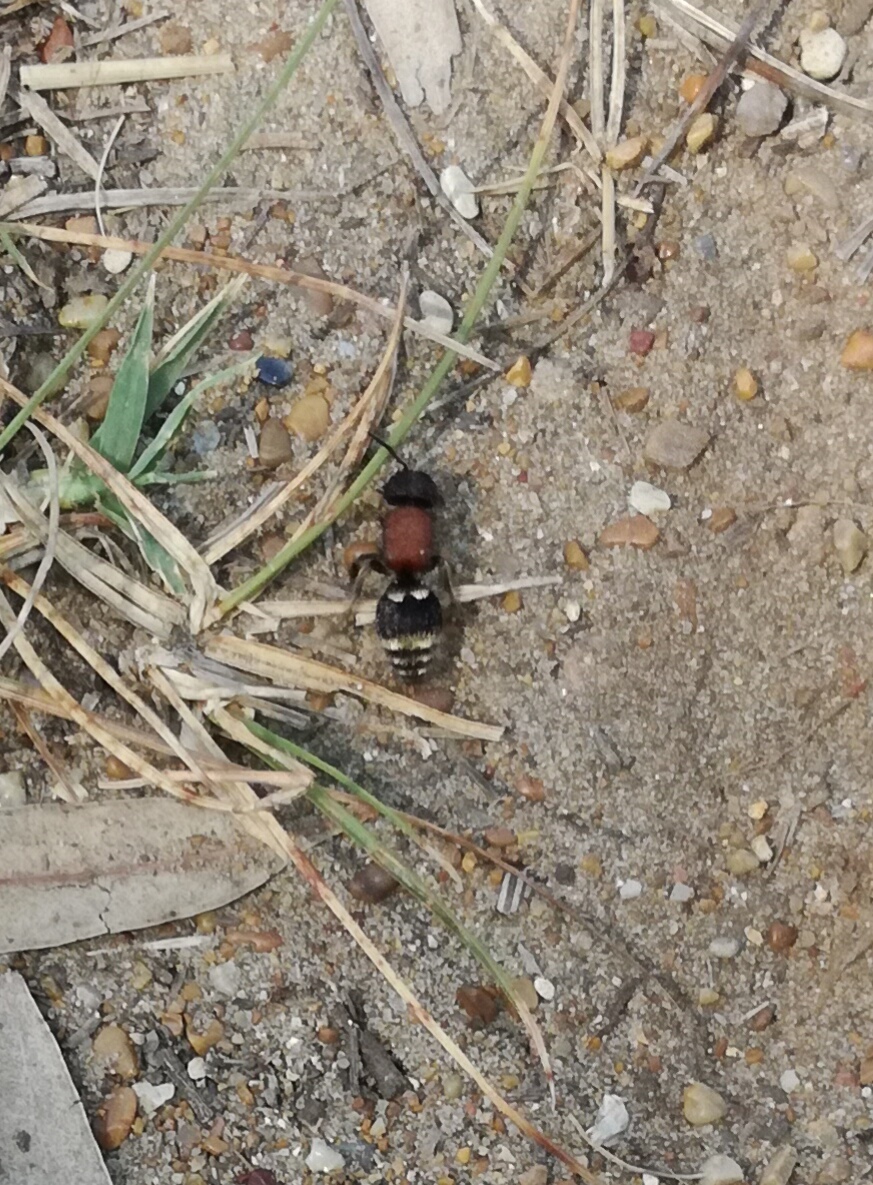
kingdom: Animalia
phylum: Arthropoda
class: Insecta
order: Hymenoptera
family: Mutillidae
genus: Tropidotilla
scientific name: Tropidotilla litoralis
